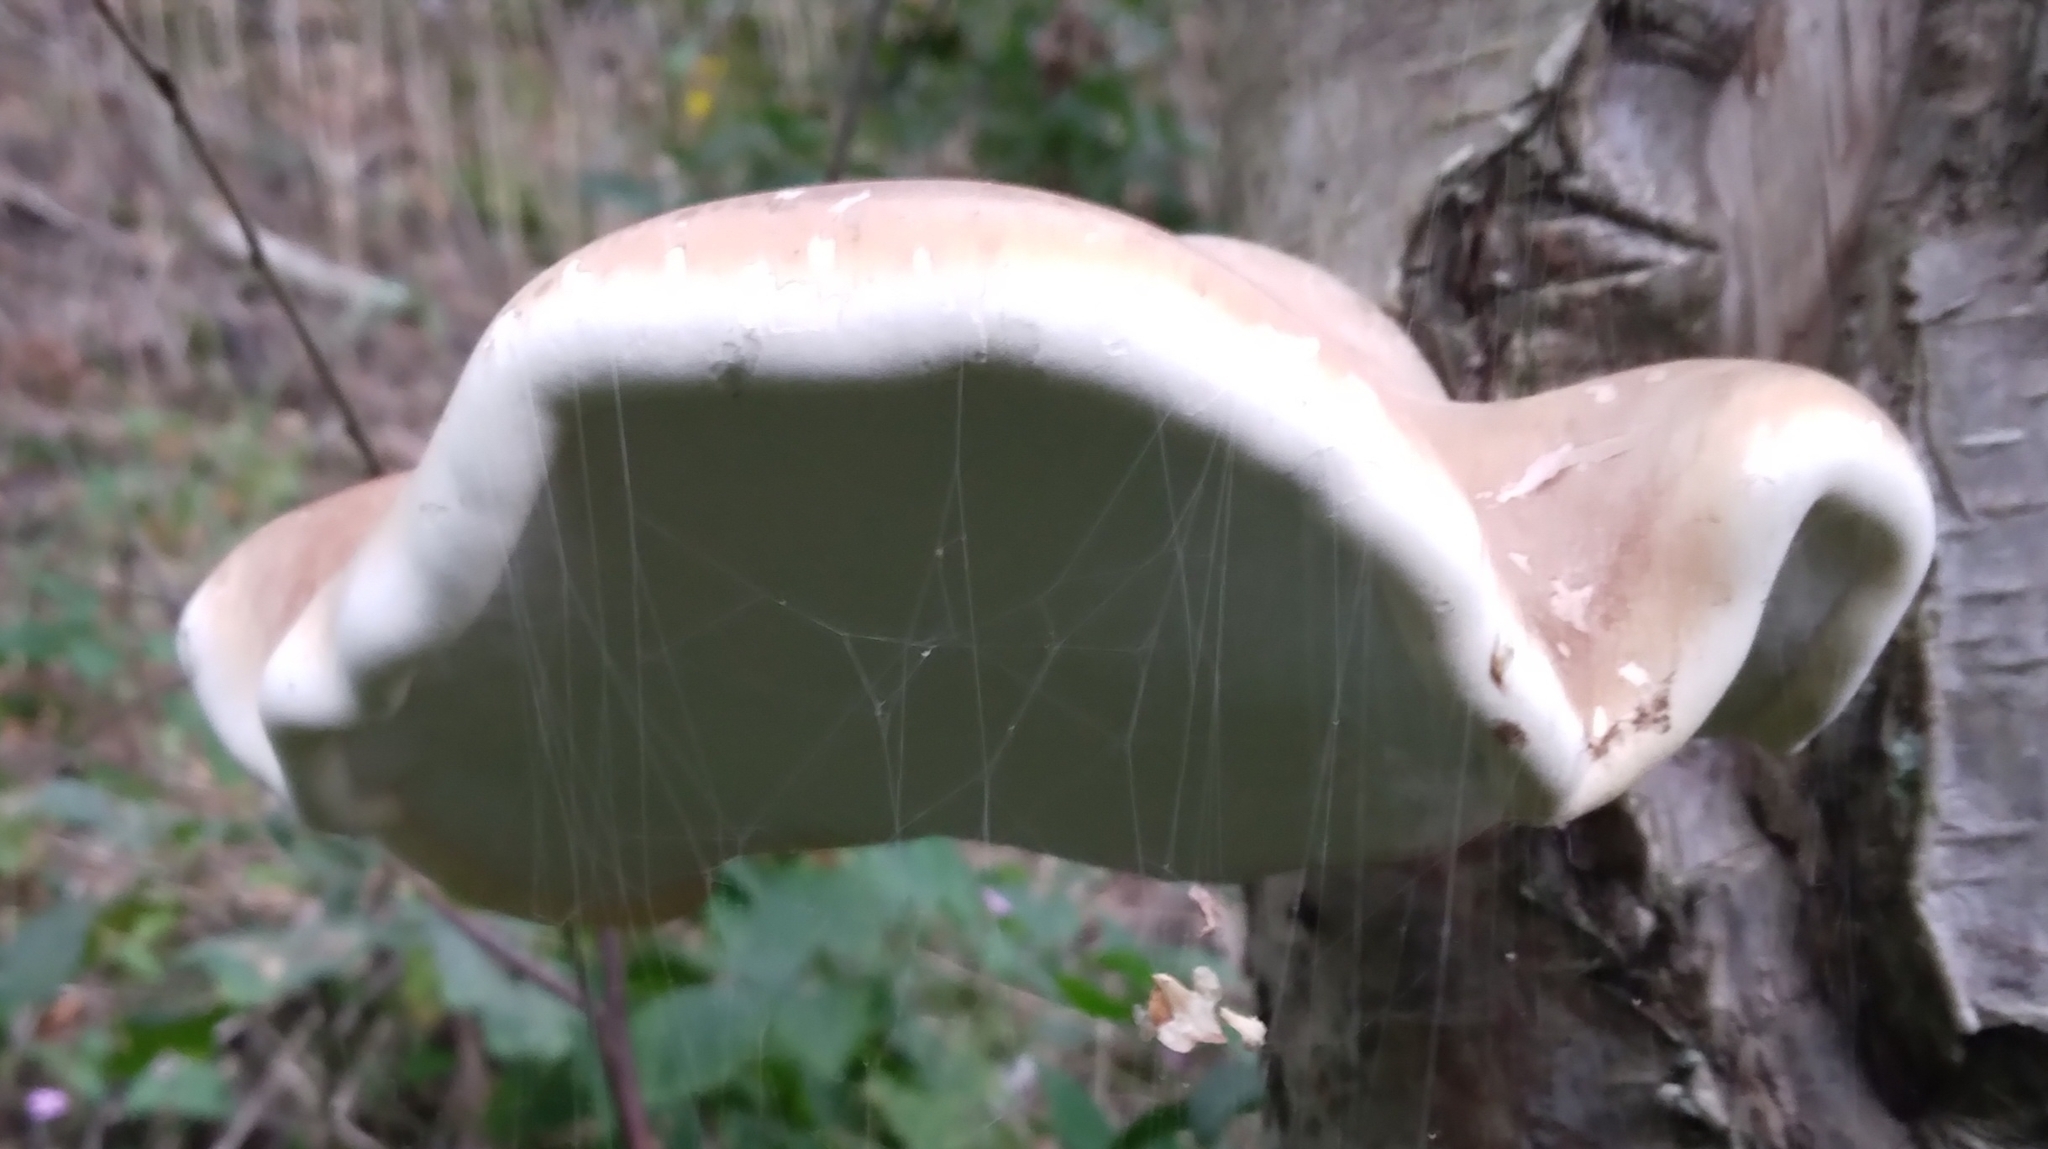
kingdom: Fungi
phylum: Basidiomycota
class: Agaricomycetes
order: Polyporales
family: Fomitopsidaceae
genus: Fomitopsis
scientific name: Fomitopsis betulina
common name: Birch polypore
